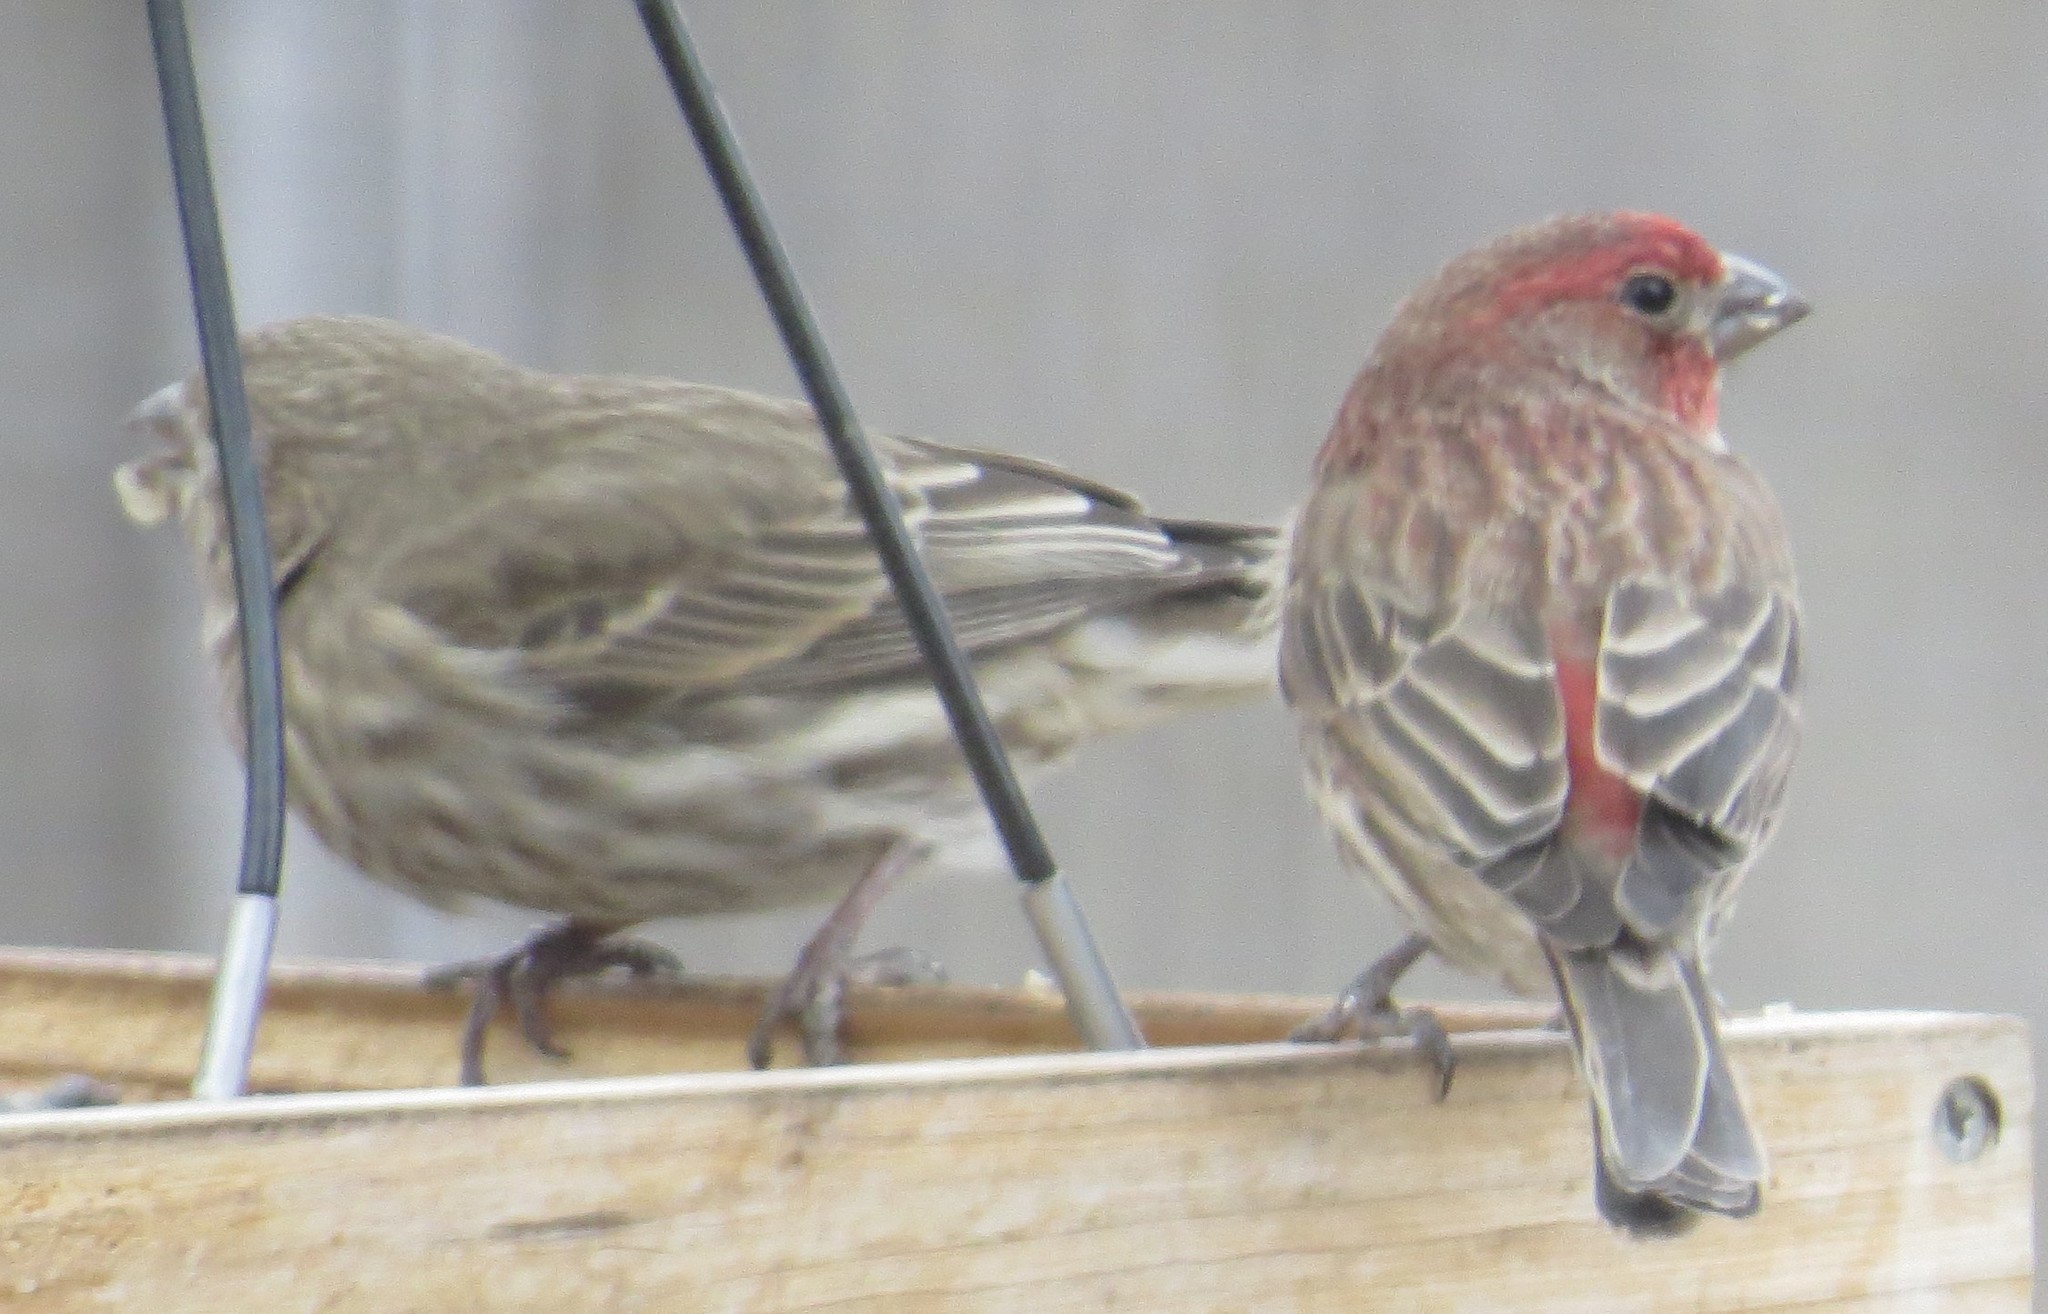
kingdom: Animalia
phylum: Chordata
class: Aves
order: Passeriformes
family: Fringillidae
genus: Haemorhous
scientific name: Haemorhous mexicanus
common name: House finch
